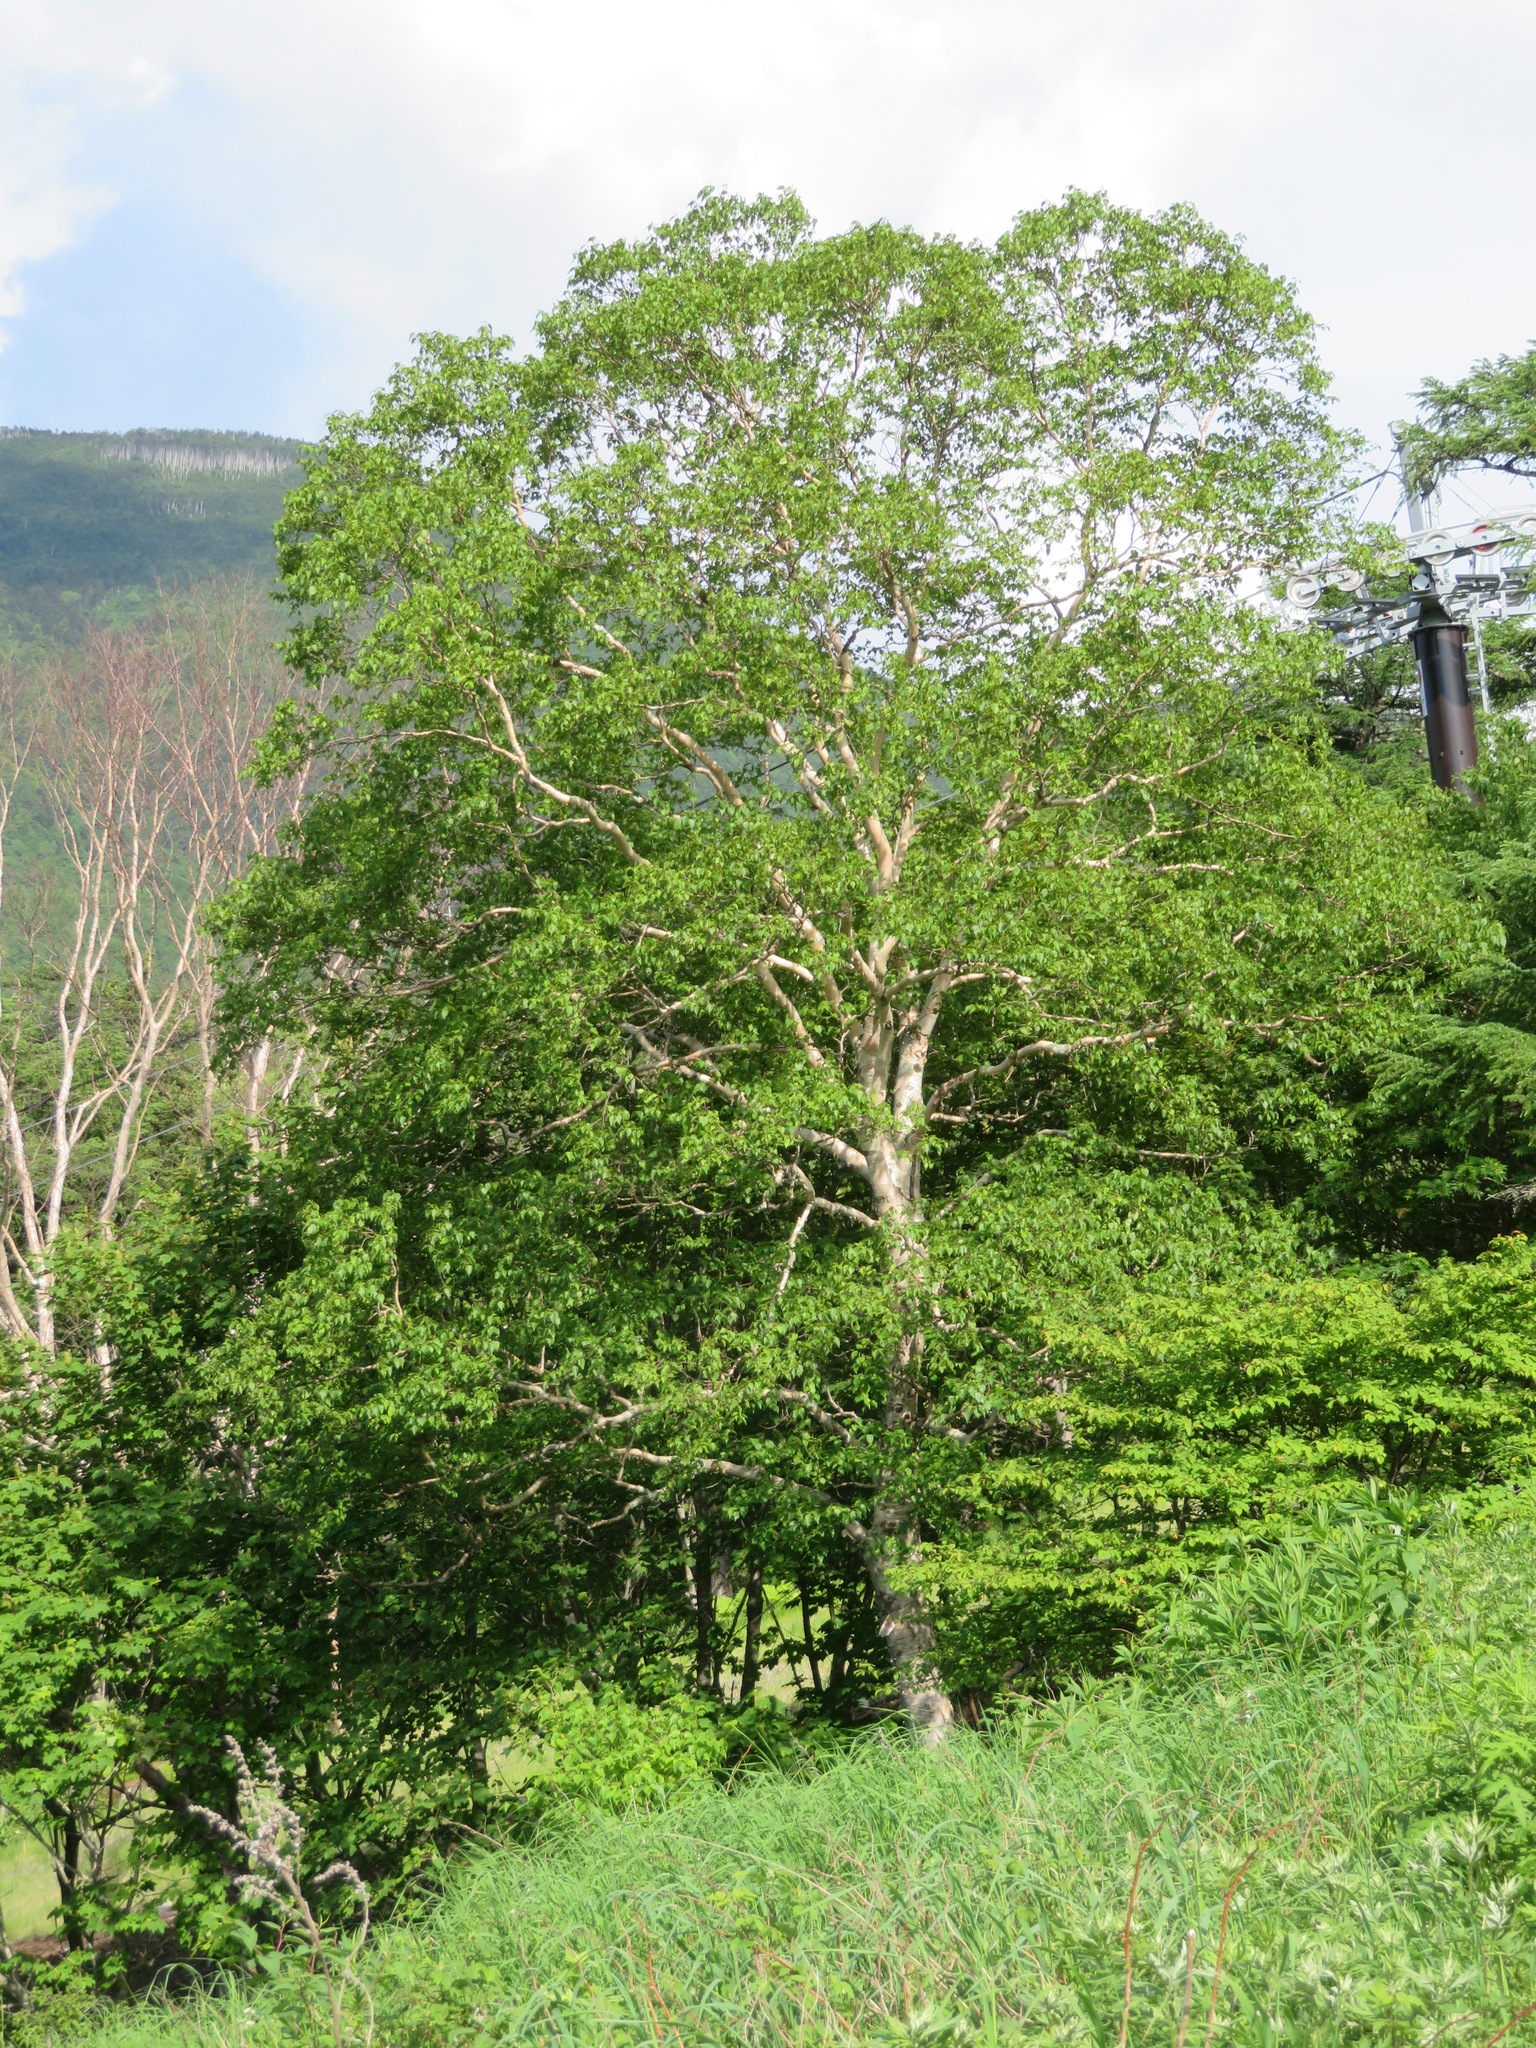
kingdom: Plantae
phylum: Tracheophyta
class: Magnoliopsida
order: Fagales
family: Betulaceae
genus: Betula
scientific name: Betula ermanii
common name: Erman's birch
